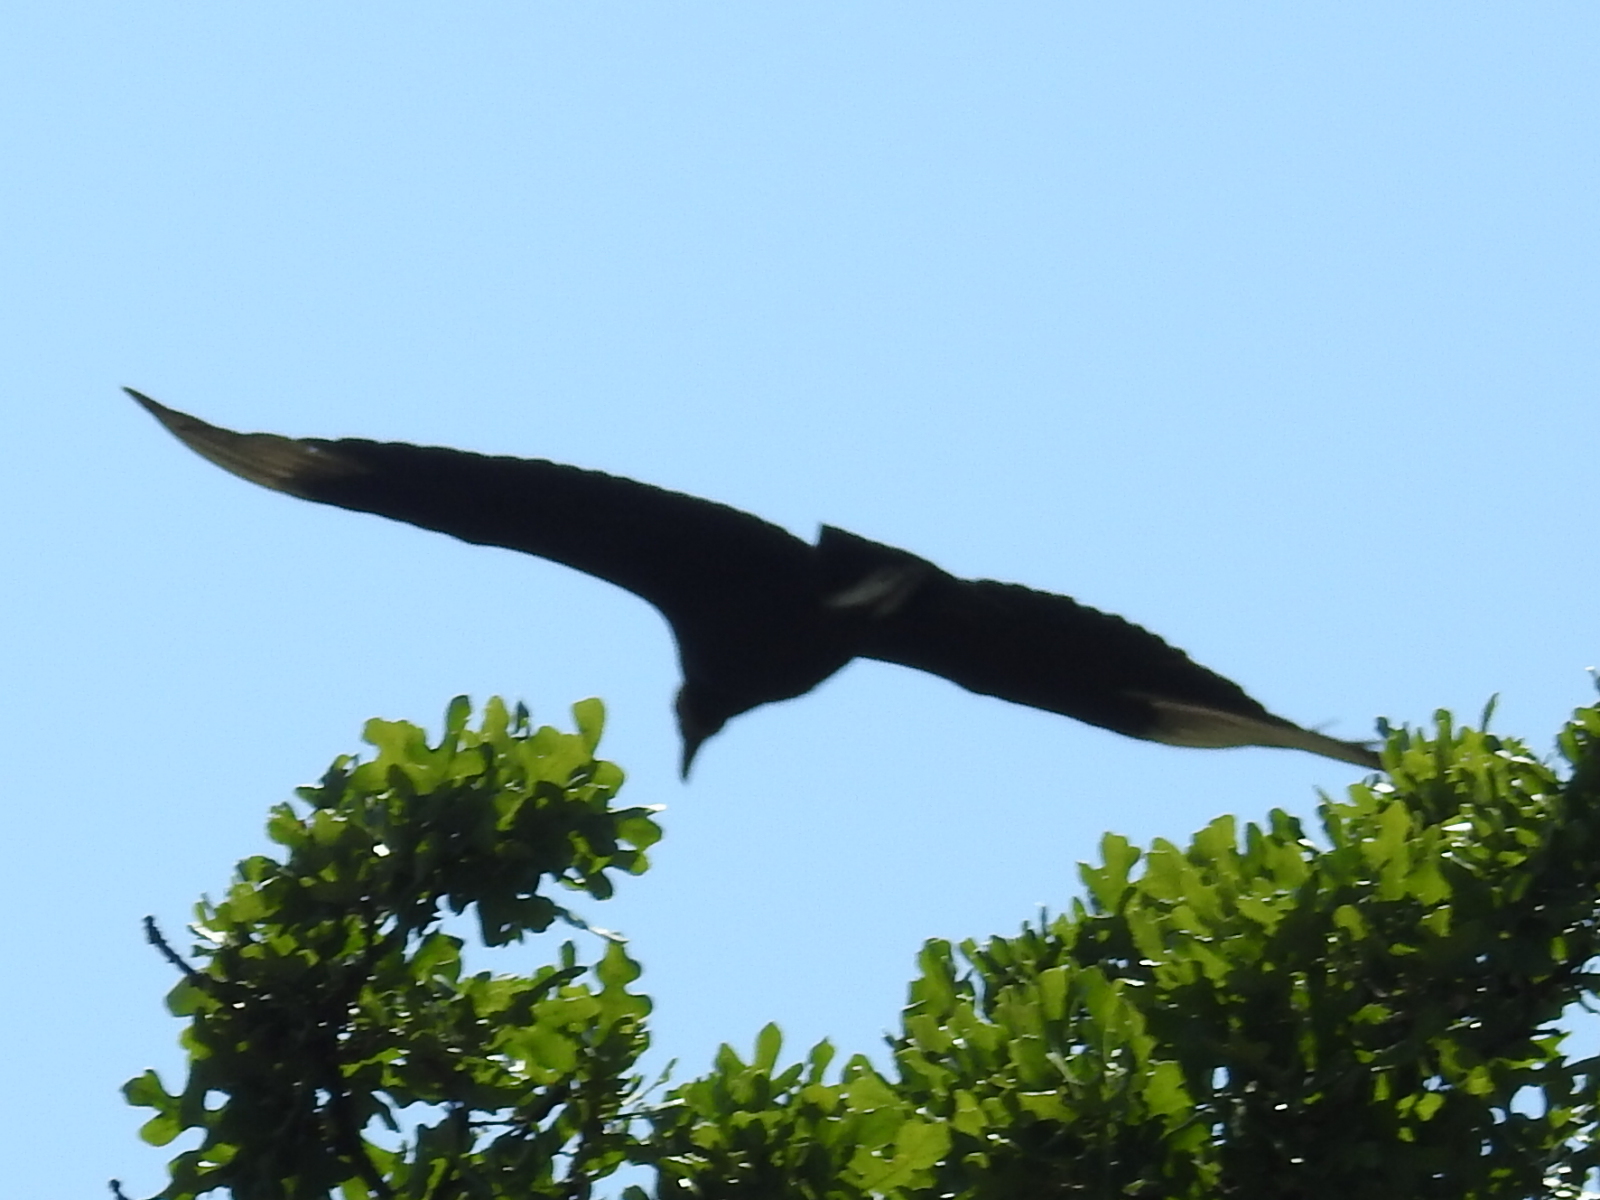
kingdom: Animalia
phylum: Chordata
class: Aves
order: Accipitriformes
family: Cathartidae
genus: Coragyps
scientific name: Coragyps atratus
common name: Black vulture
